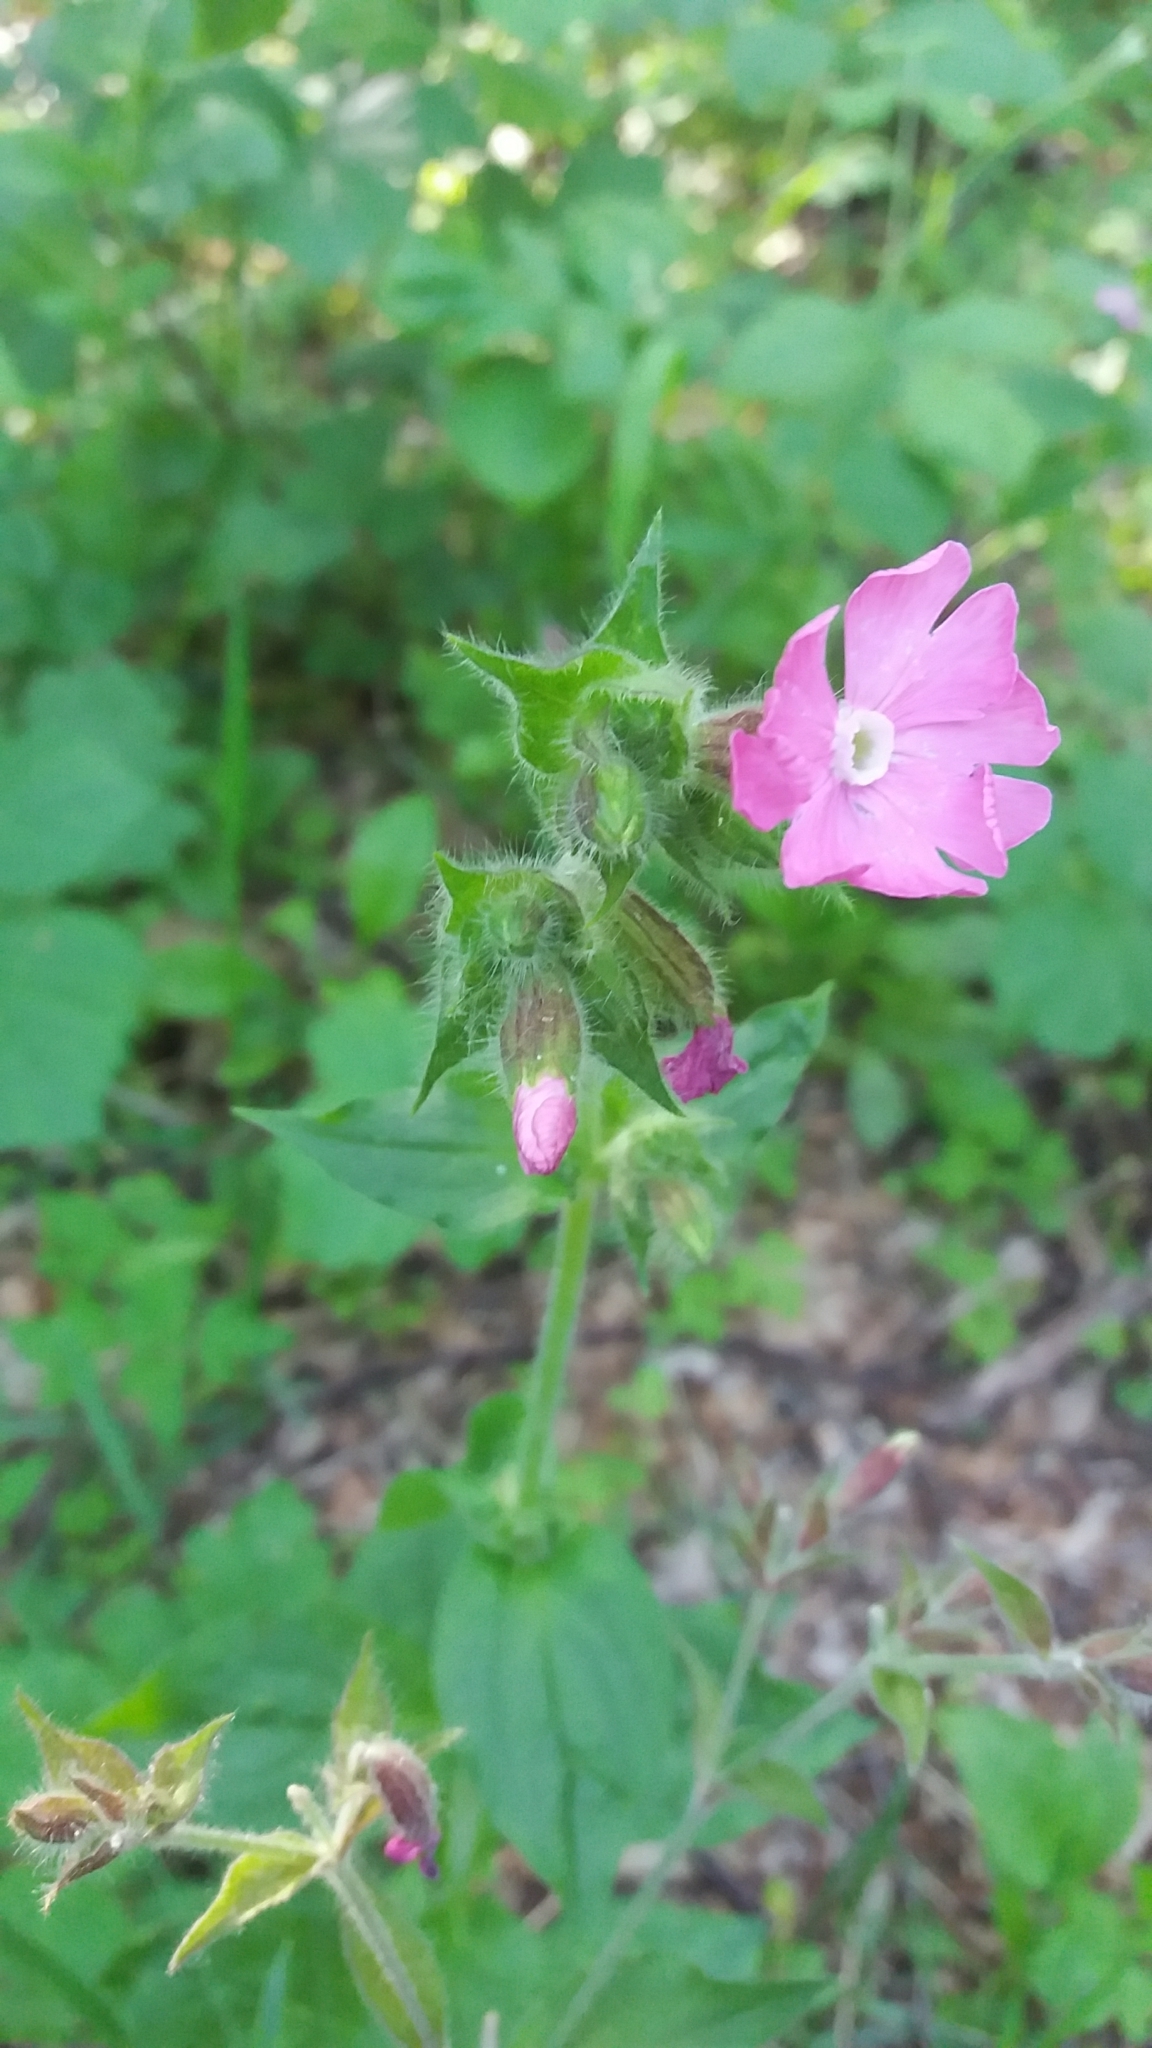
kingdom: Plantae
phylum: Tracheophyta
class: Magnoliopsida
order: Caryophyllales
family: Caryophyllaceae
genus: Silene
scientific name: Silene dioica
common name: Red campion
